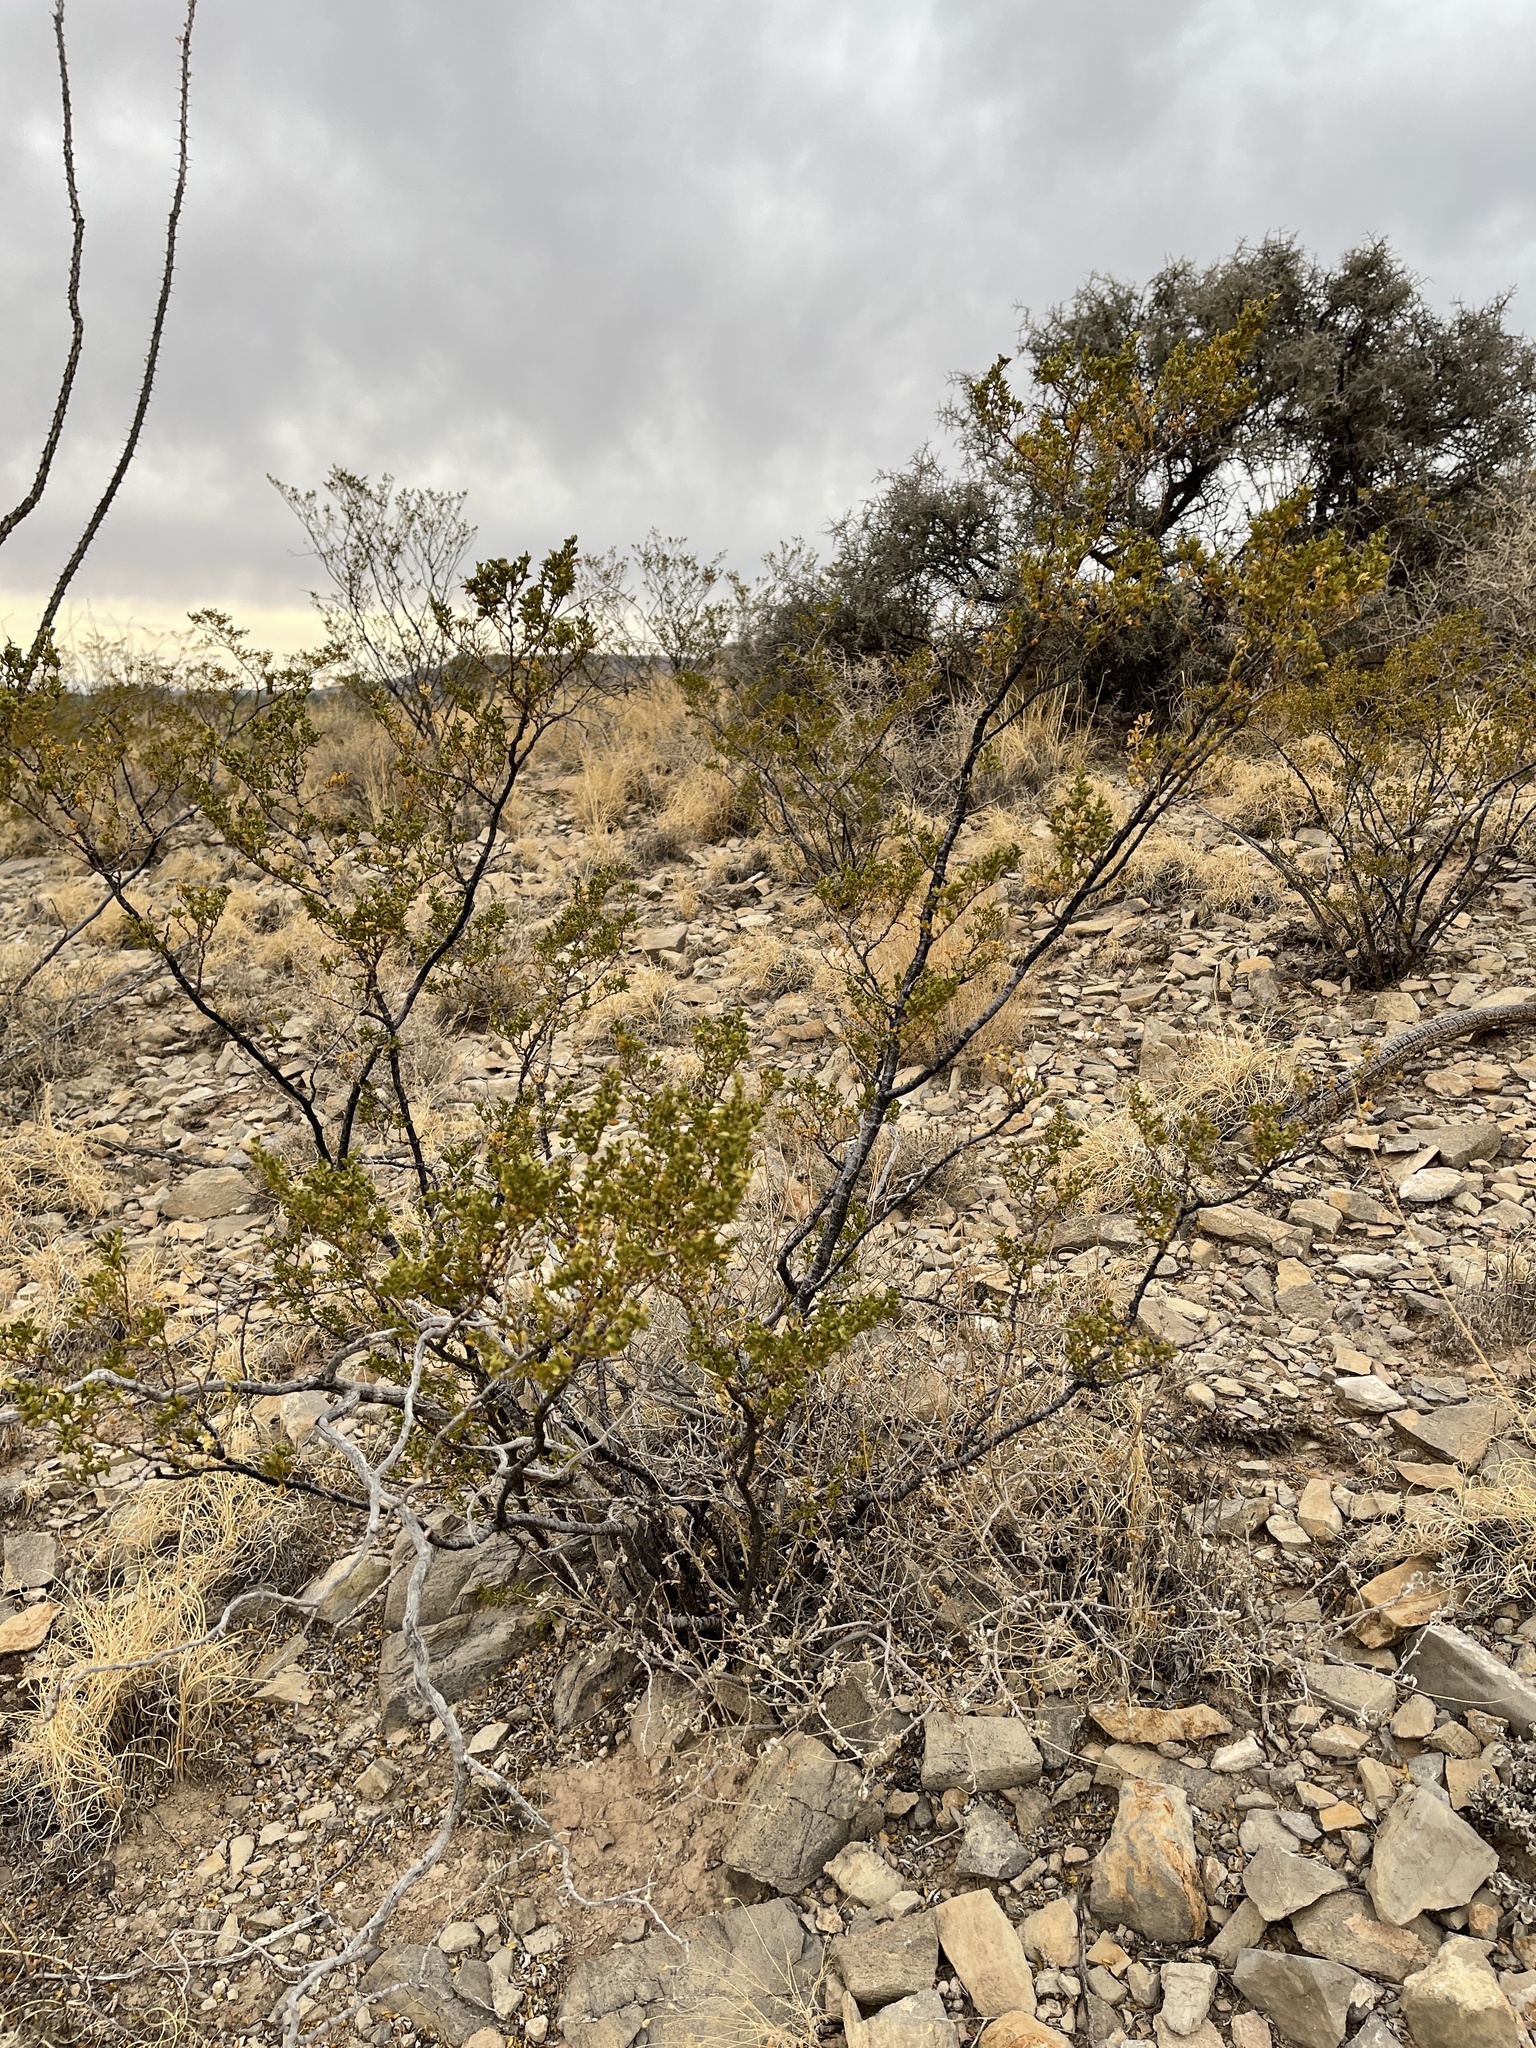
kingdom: Plantae
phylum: Tracheophyta
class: Magnoliopsida
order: Zygophyllales
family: Zygophyllaceae
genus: Larrea
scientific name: Larrea tridentata
